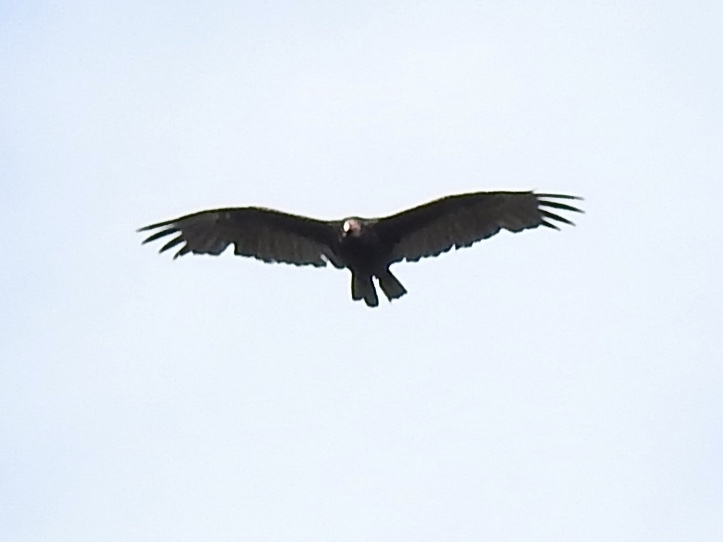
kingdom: Animalia
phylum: Chordata
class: Aves
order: Accipitriformes
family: Cathartidae
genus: Cathartes
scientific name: Cathartes aura
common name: Turkey vulture
